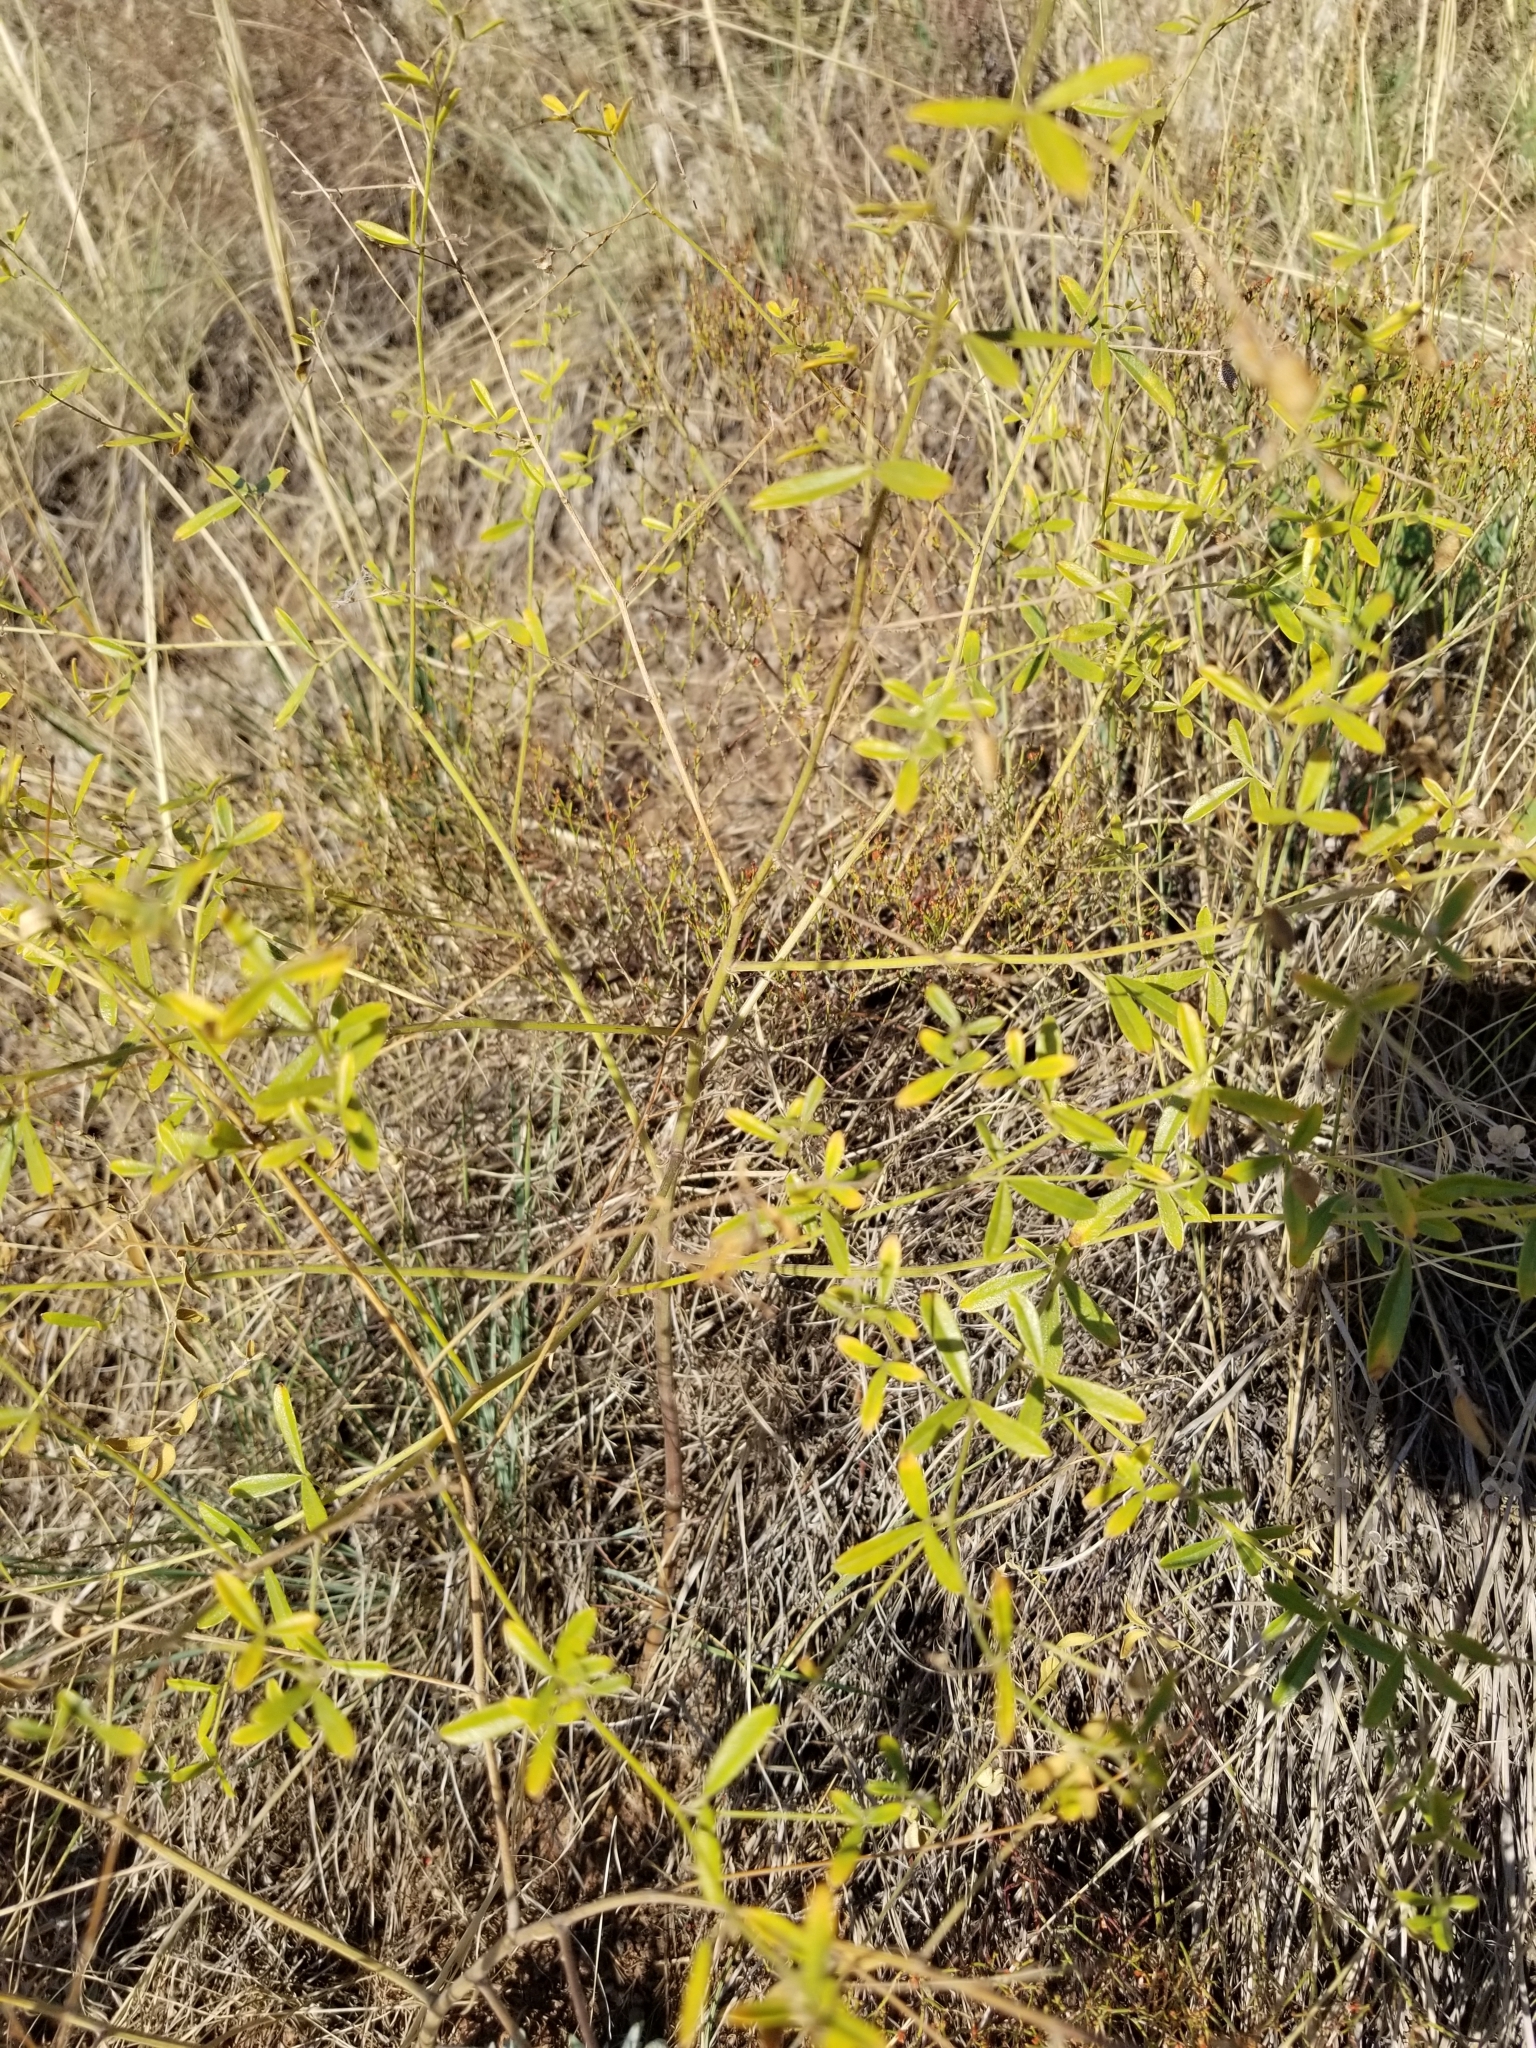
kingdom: Plantae
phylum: Tracheophyta
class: Magnoliopsida
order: Fabales
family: Fabaceae
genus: Pediomelum
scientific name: Pediomelum tenuiflorum
